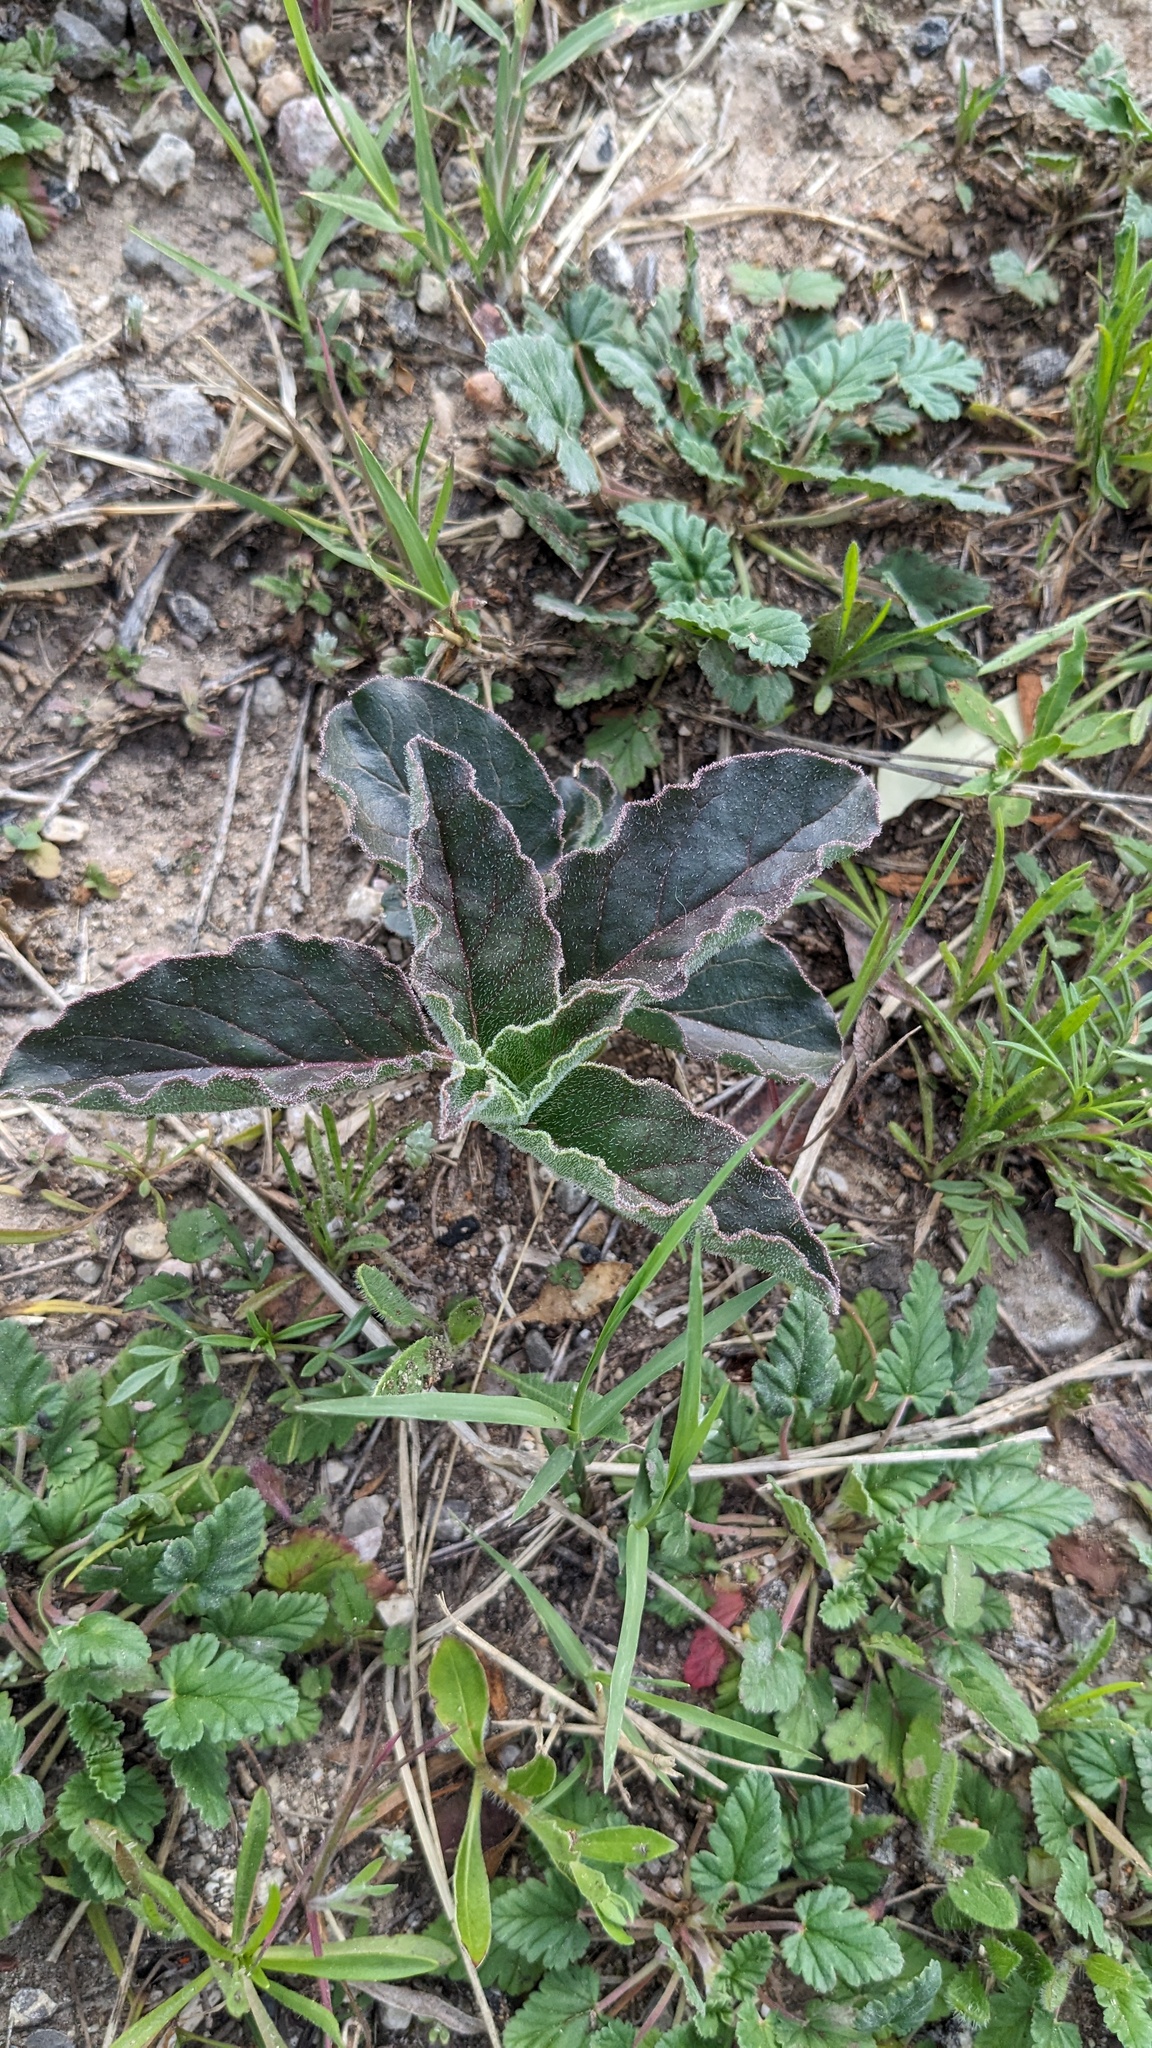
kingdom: Plantae
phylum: Tracheophyta
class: Magnoliopsida
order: Gentianales
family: Apocynaceae
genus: Asclepias
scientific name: Asclepias oenotheroides
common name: Zizotes milkweed
